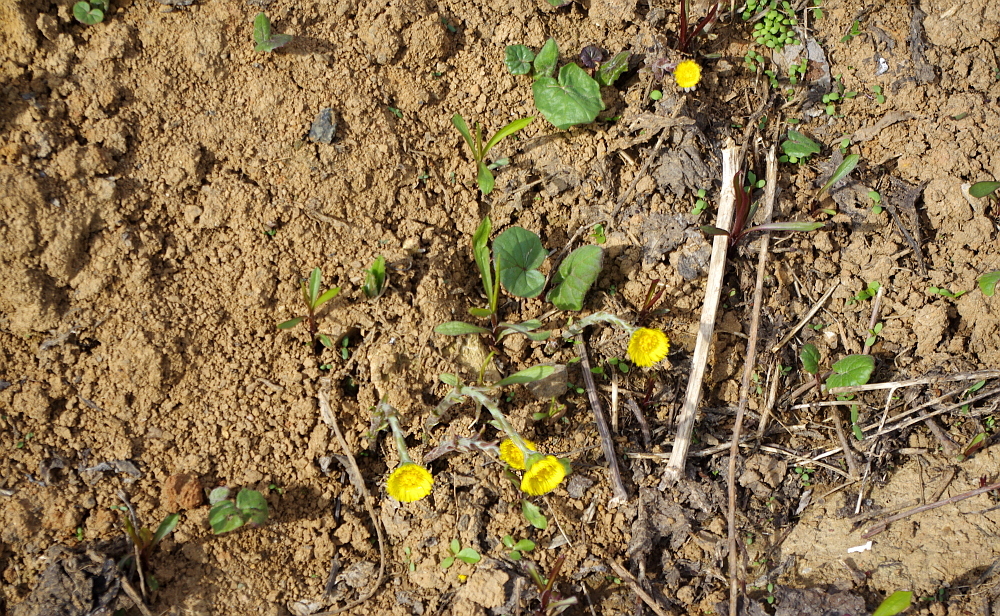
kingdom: Plantae
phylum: Tracheophyta
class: Magnoliopsida
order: Asterales
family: Asteraceae
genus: Tussilago
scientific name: Tussilago farfara
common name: Coltsfoot
